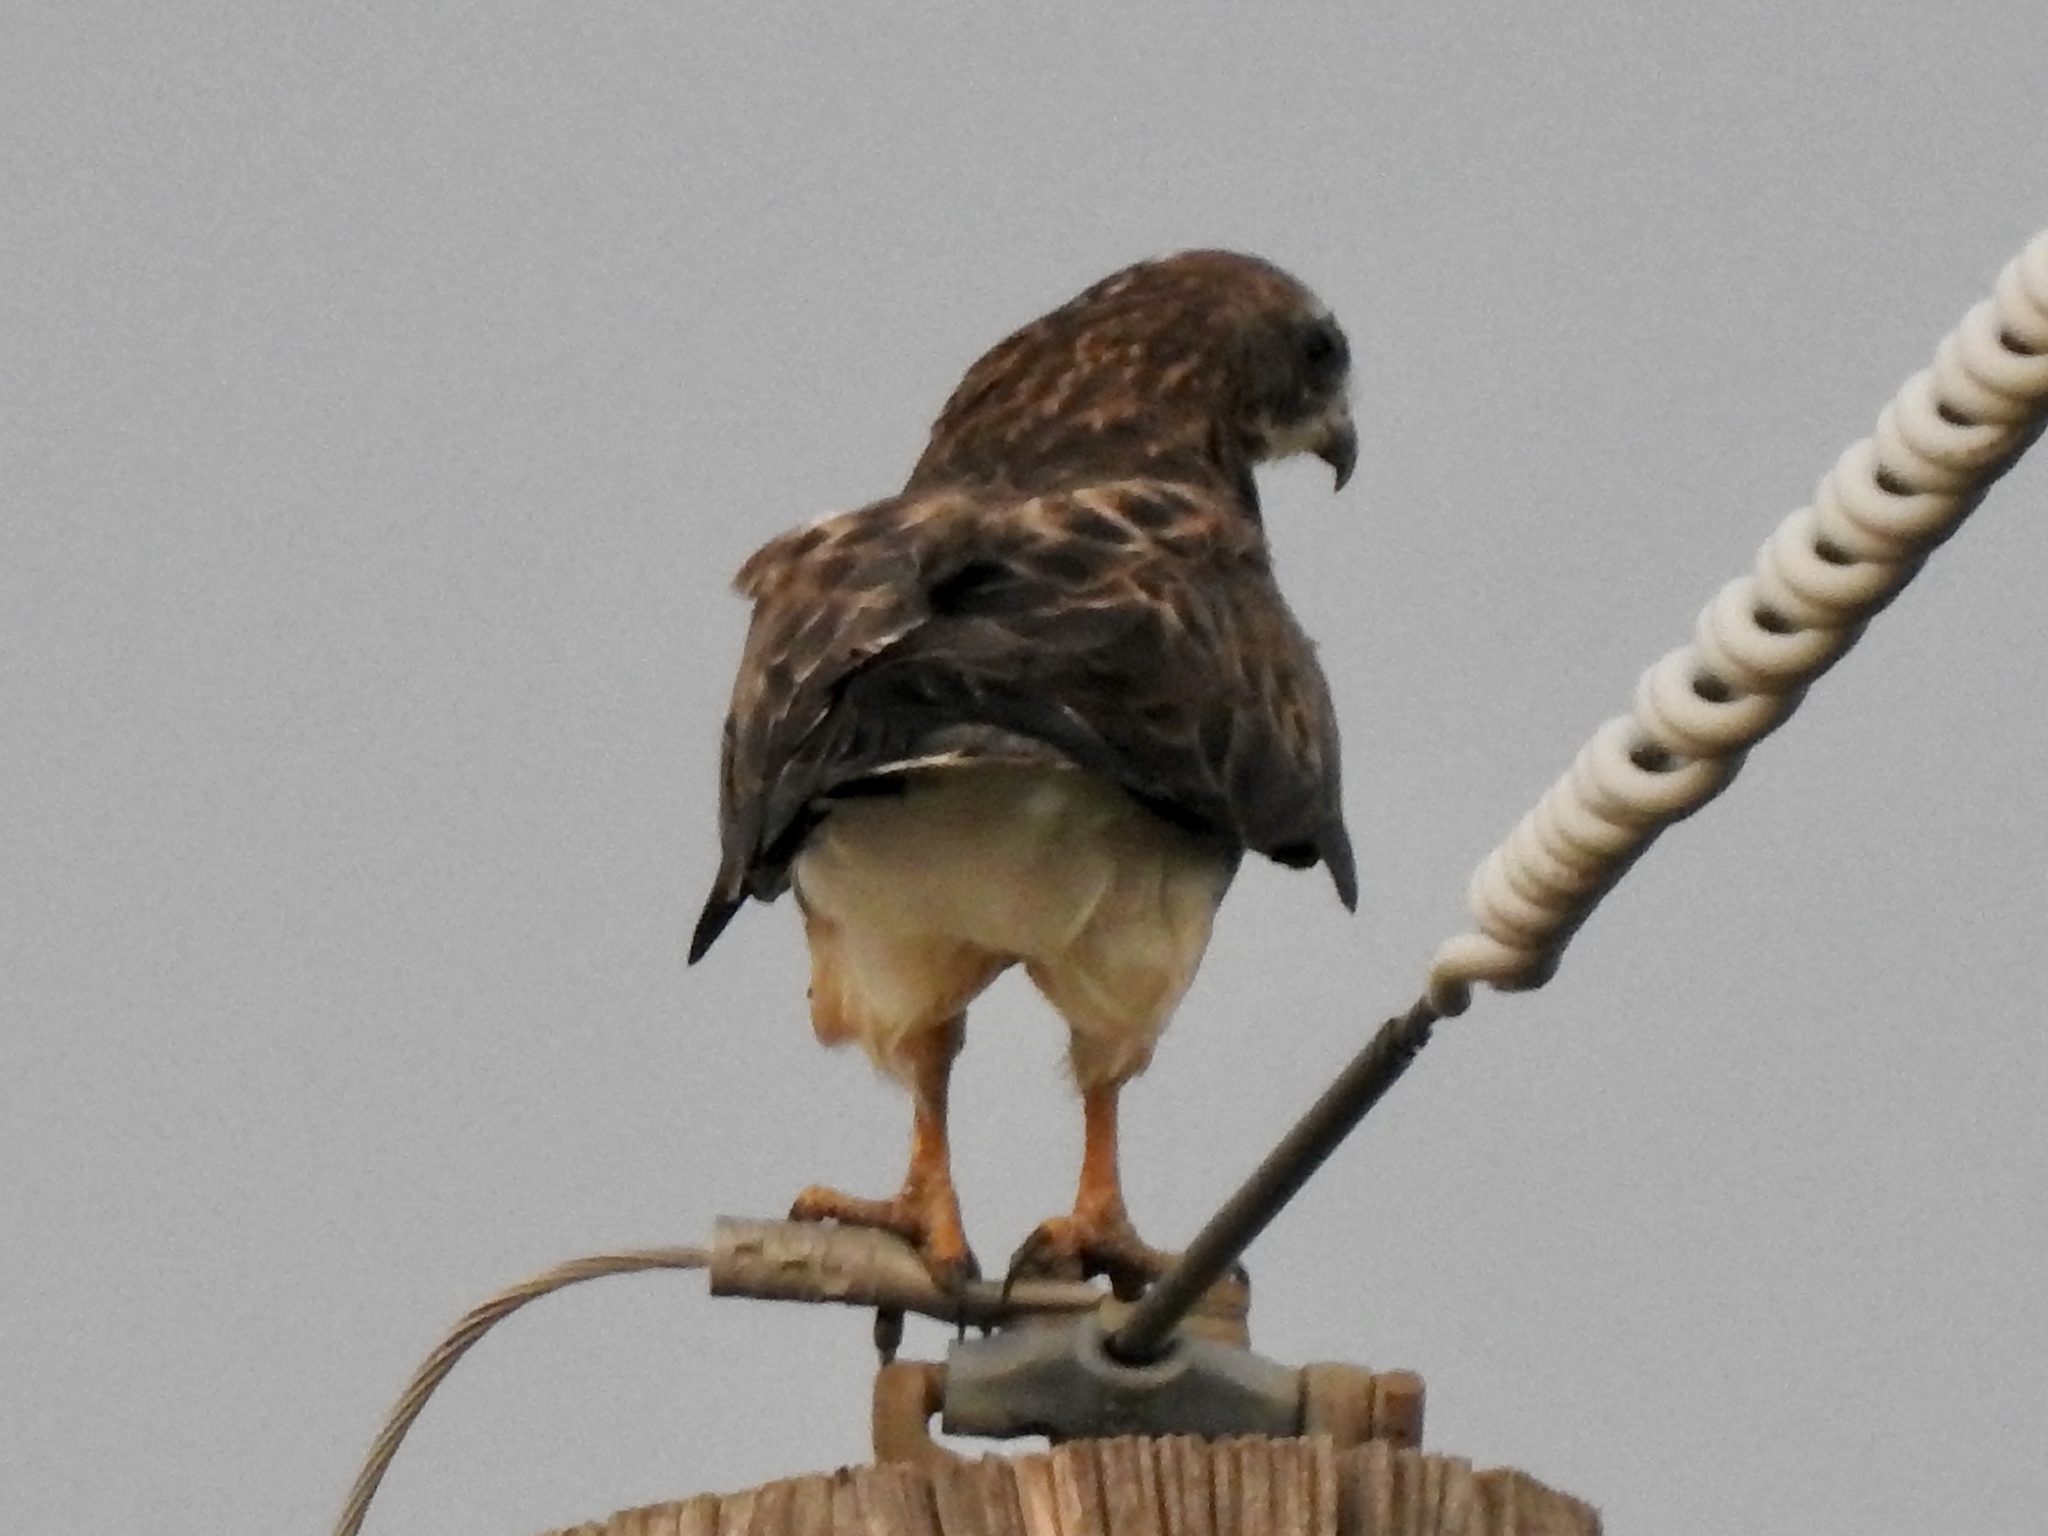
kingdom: Animalia
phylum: Chordata
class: Aves
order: Accipitriformes
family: Accipitridae
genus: Buteo
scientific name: Buteo swainsoni
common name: Swainson's hawk
